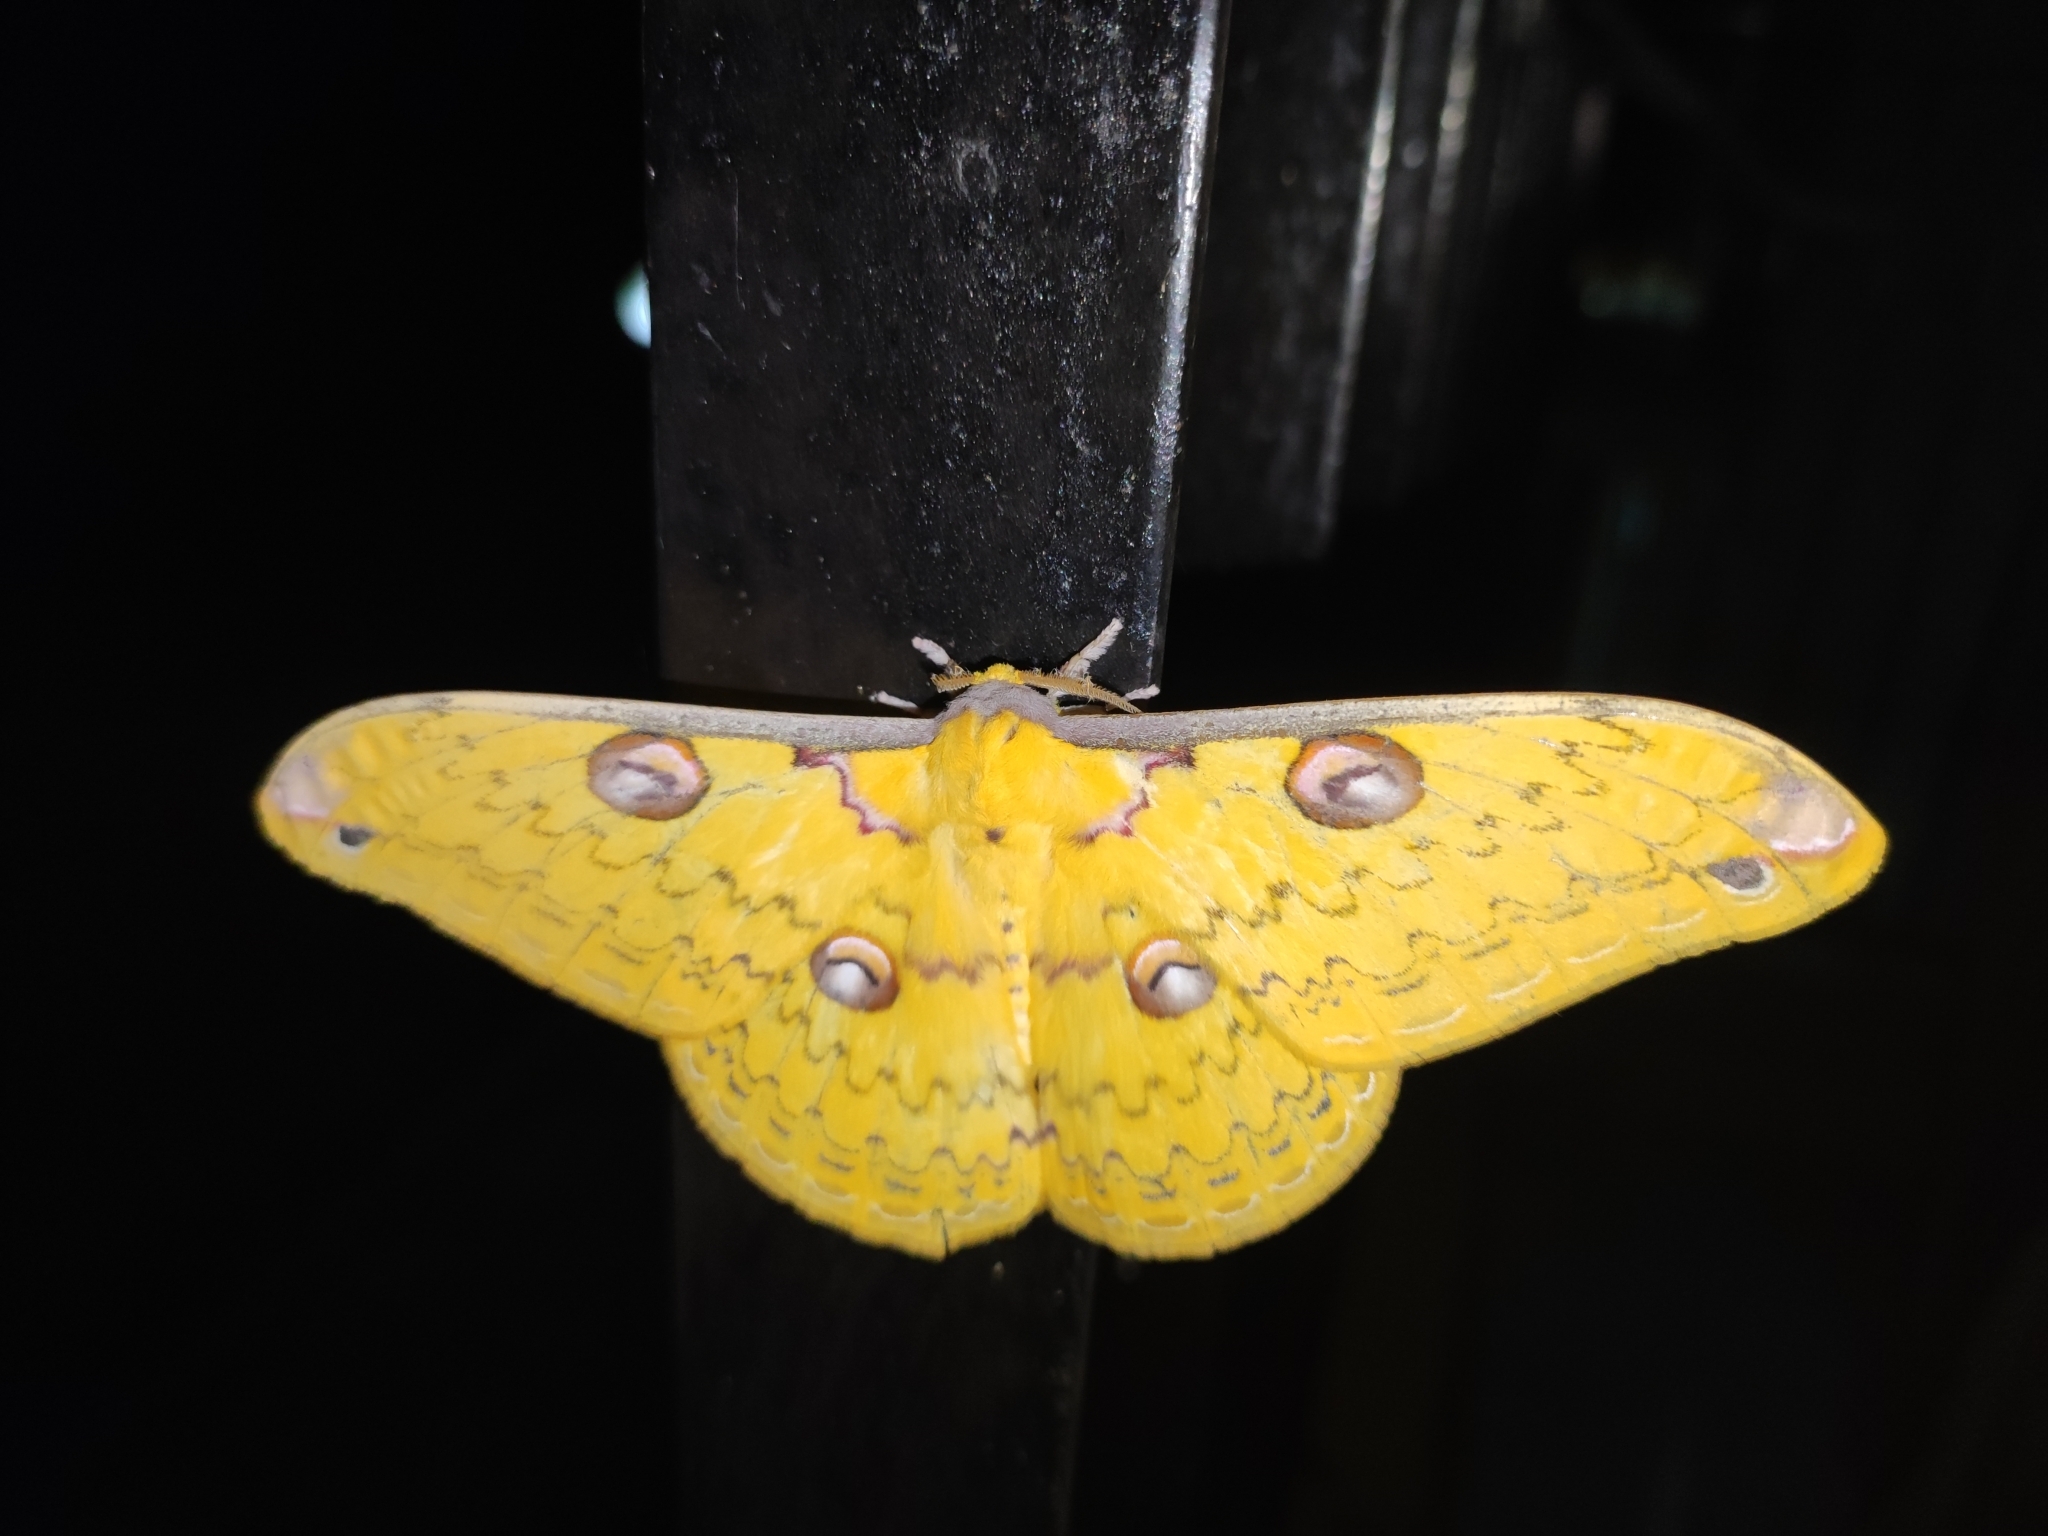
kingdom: Animalia
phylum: Arthropoda
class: Insecta
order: Lepidoptera
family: Saturniidae
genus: Loepa
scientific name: Loepa formosensis
